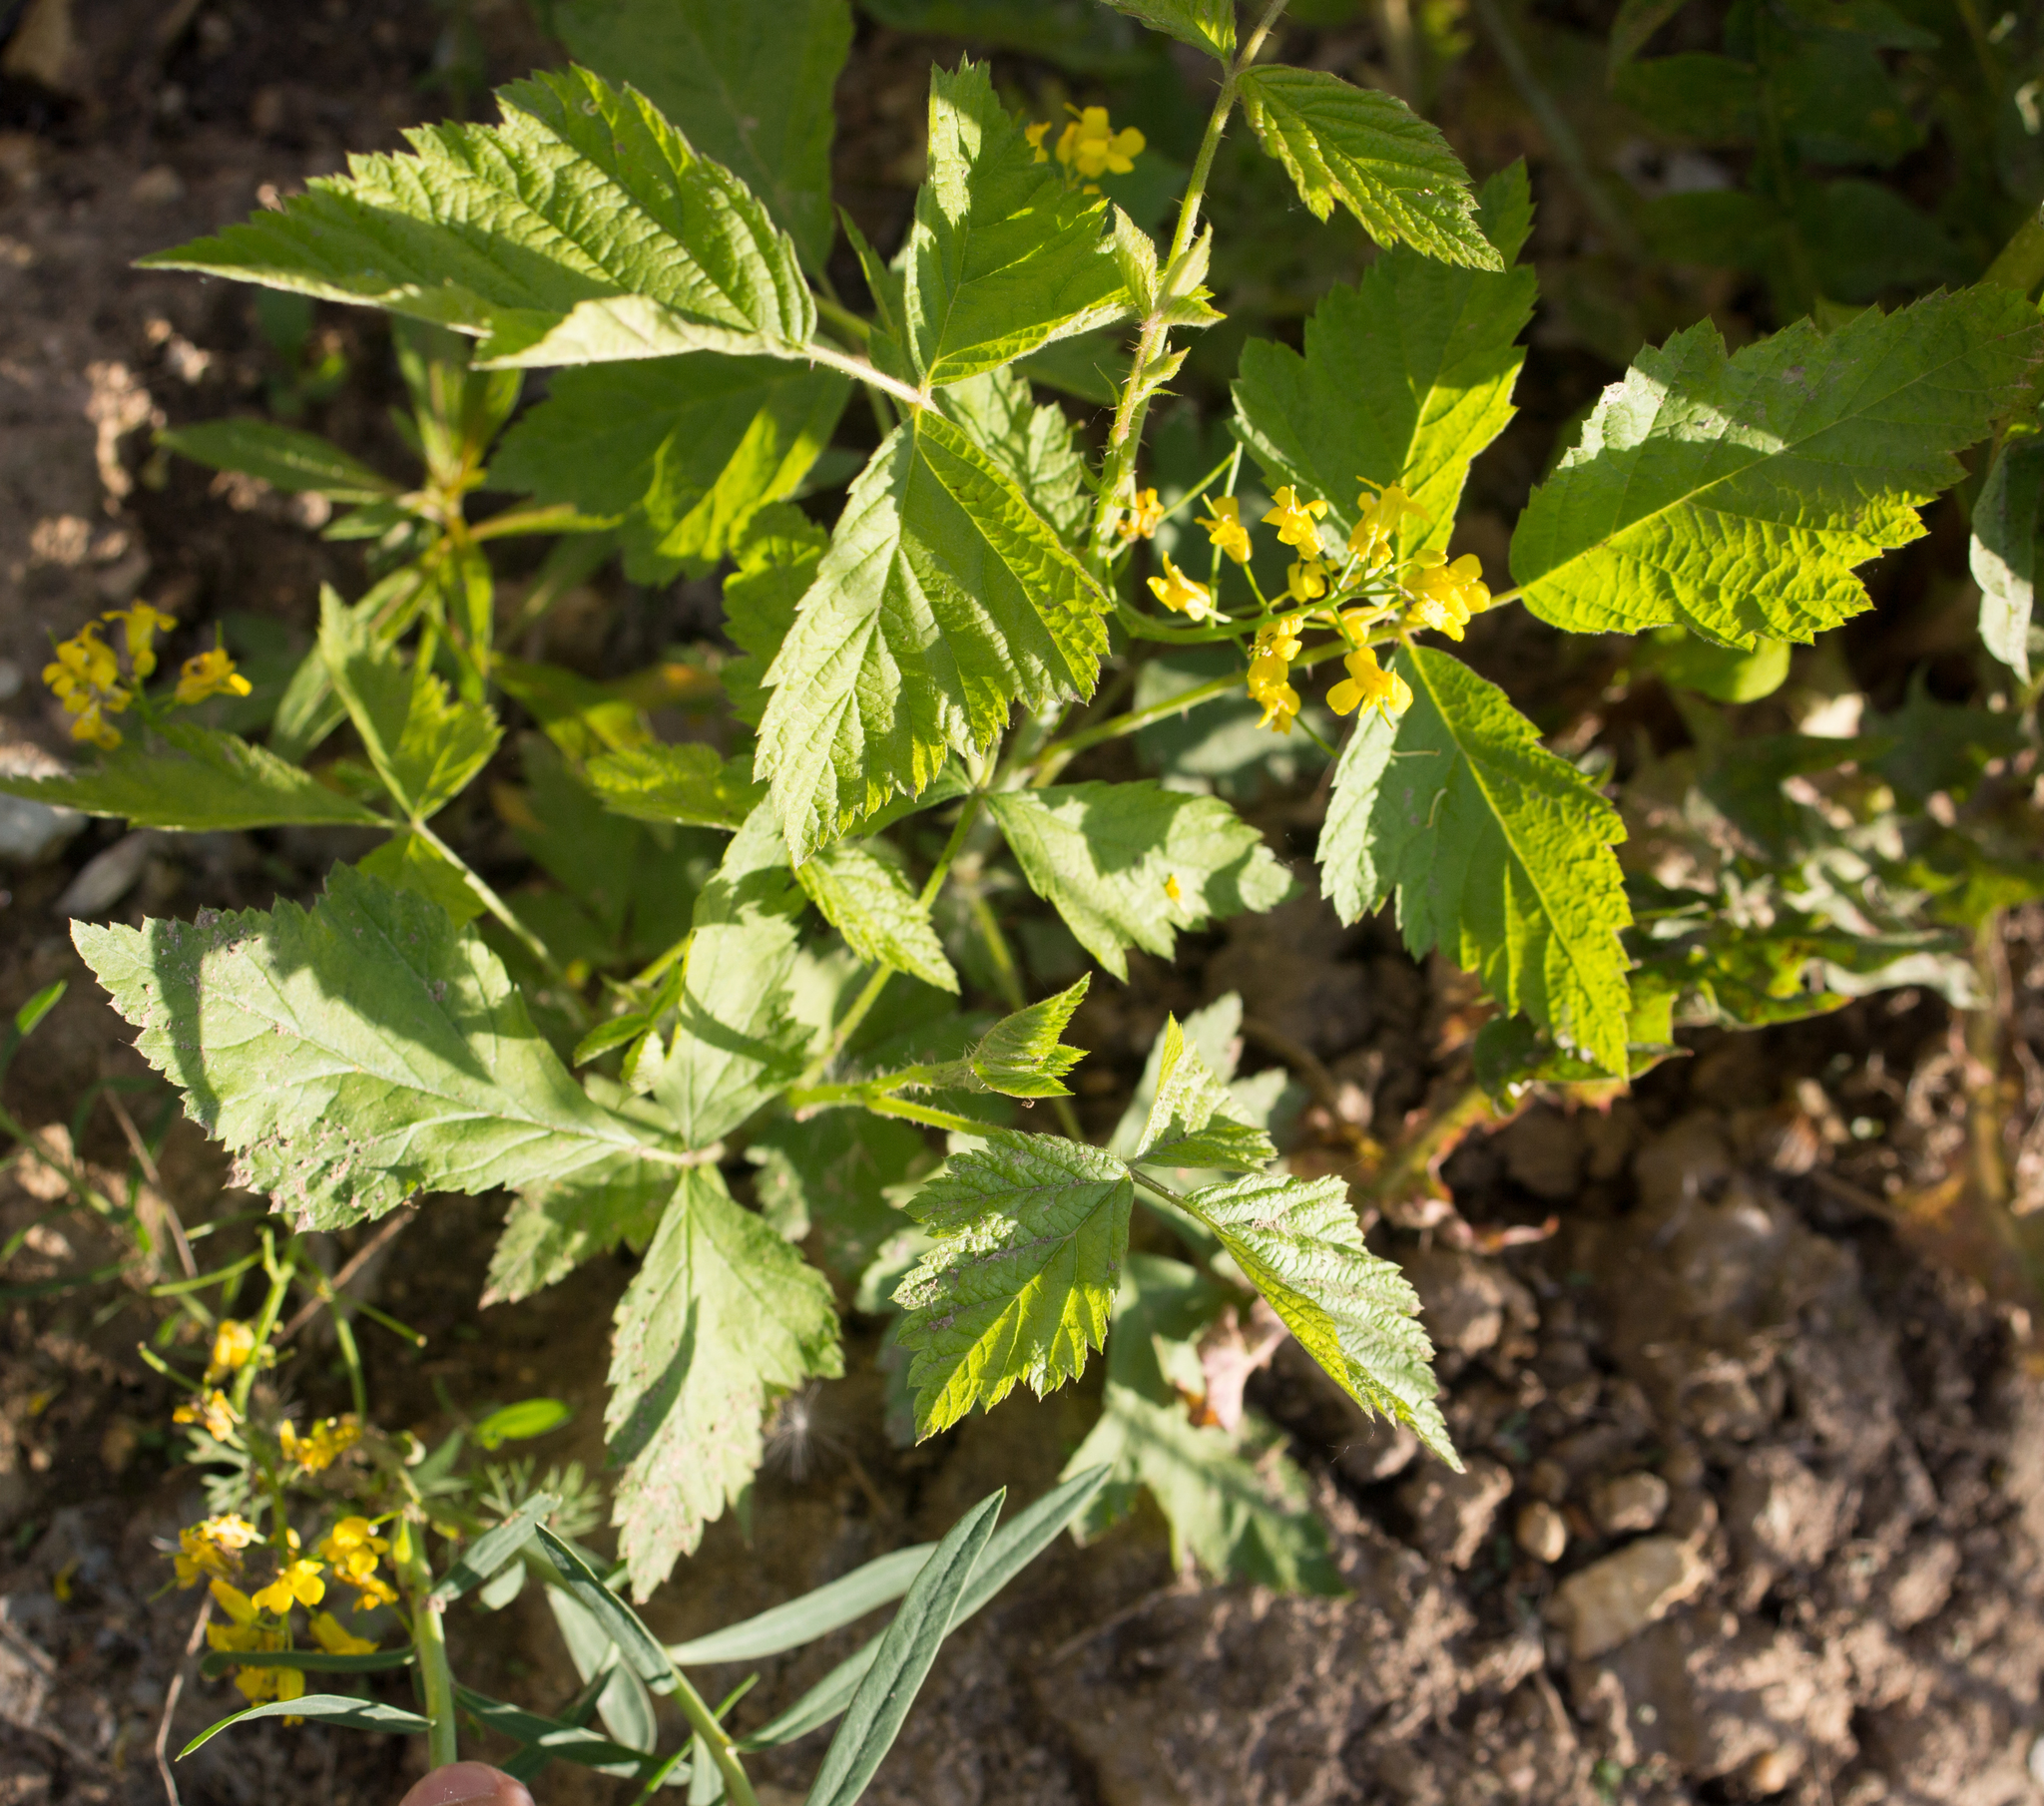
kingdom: Plantae
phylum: Tracheophyta
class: Magnoliopsida
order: Brassicales
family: Brassicaceae
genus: Barbarea
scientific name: Barbarea vulgaris
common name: Cressy-greens
